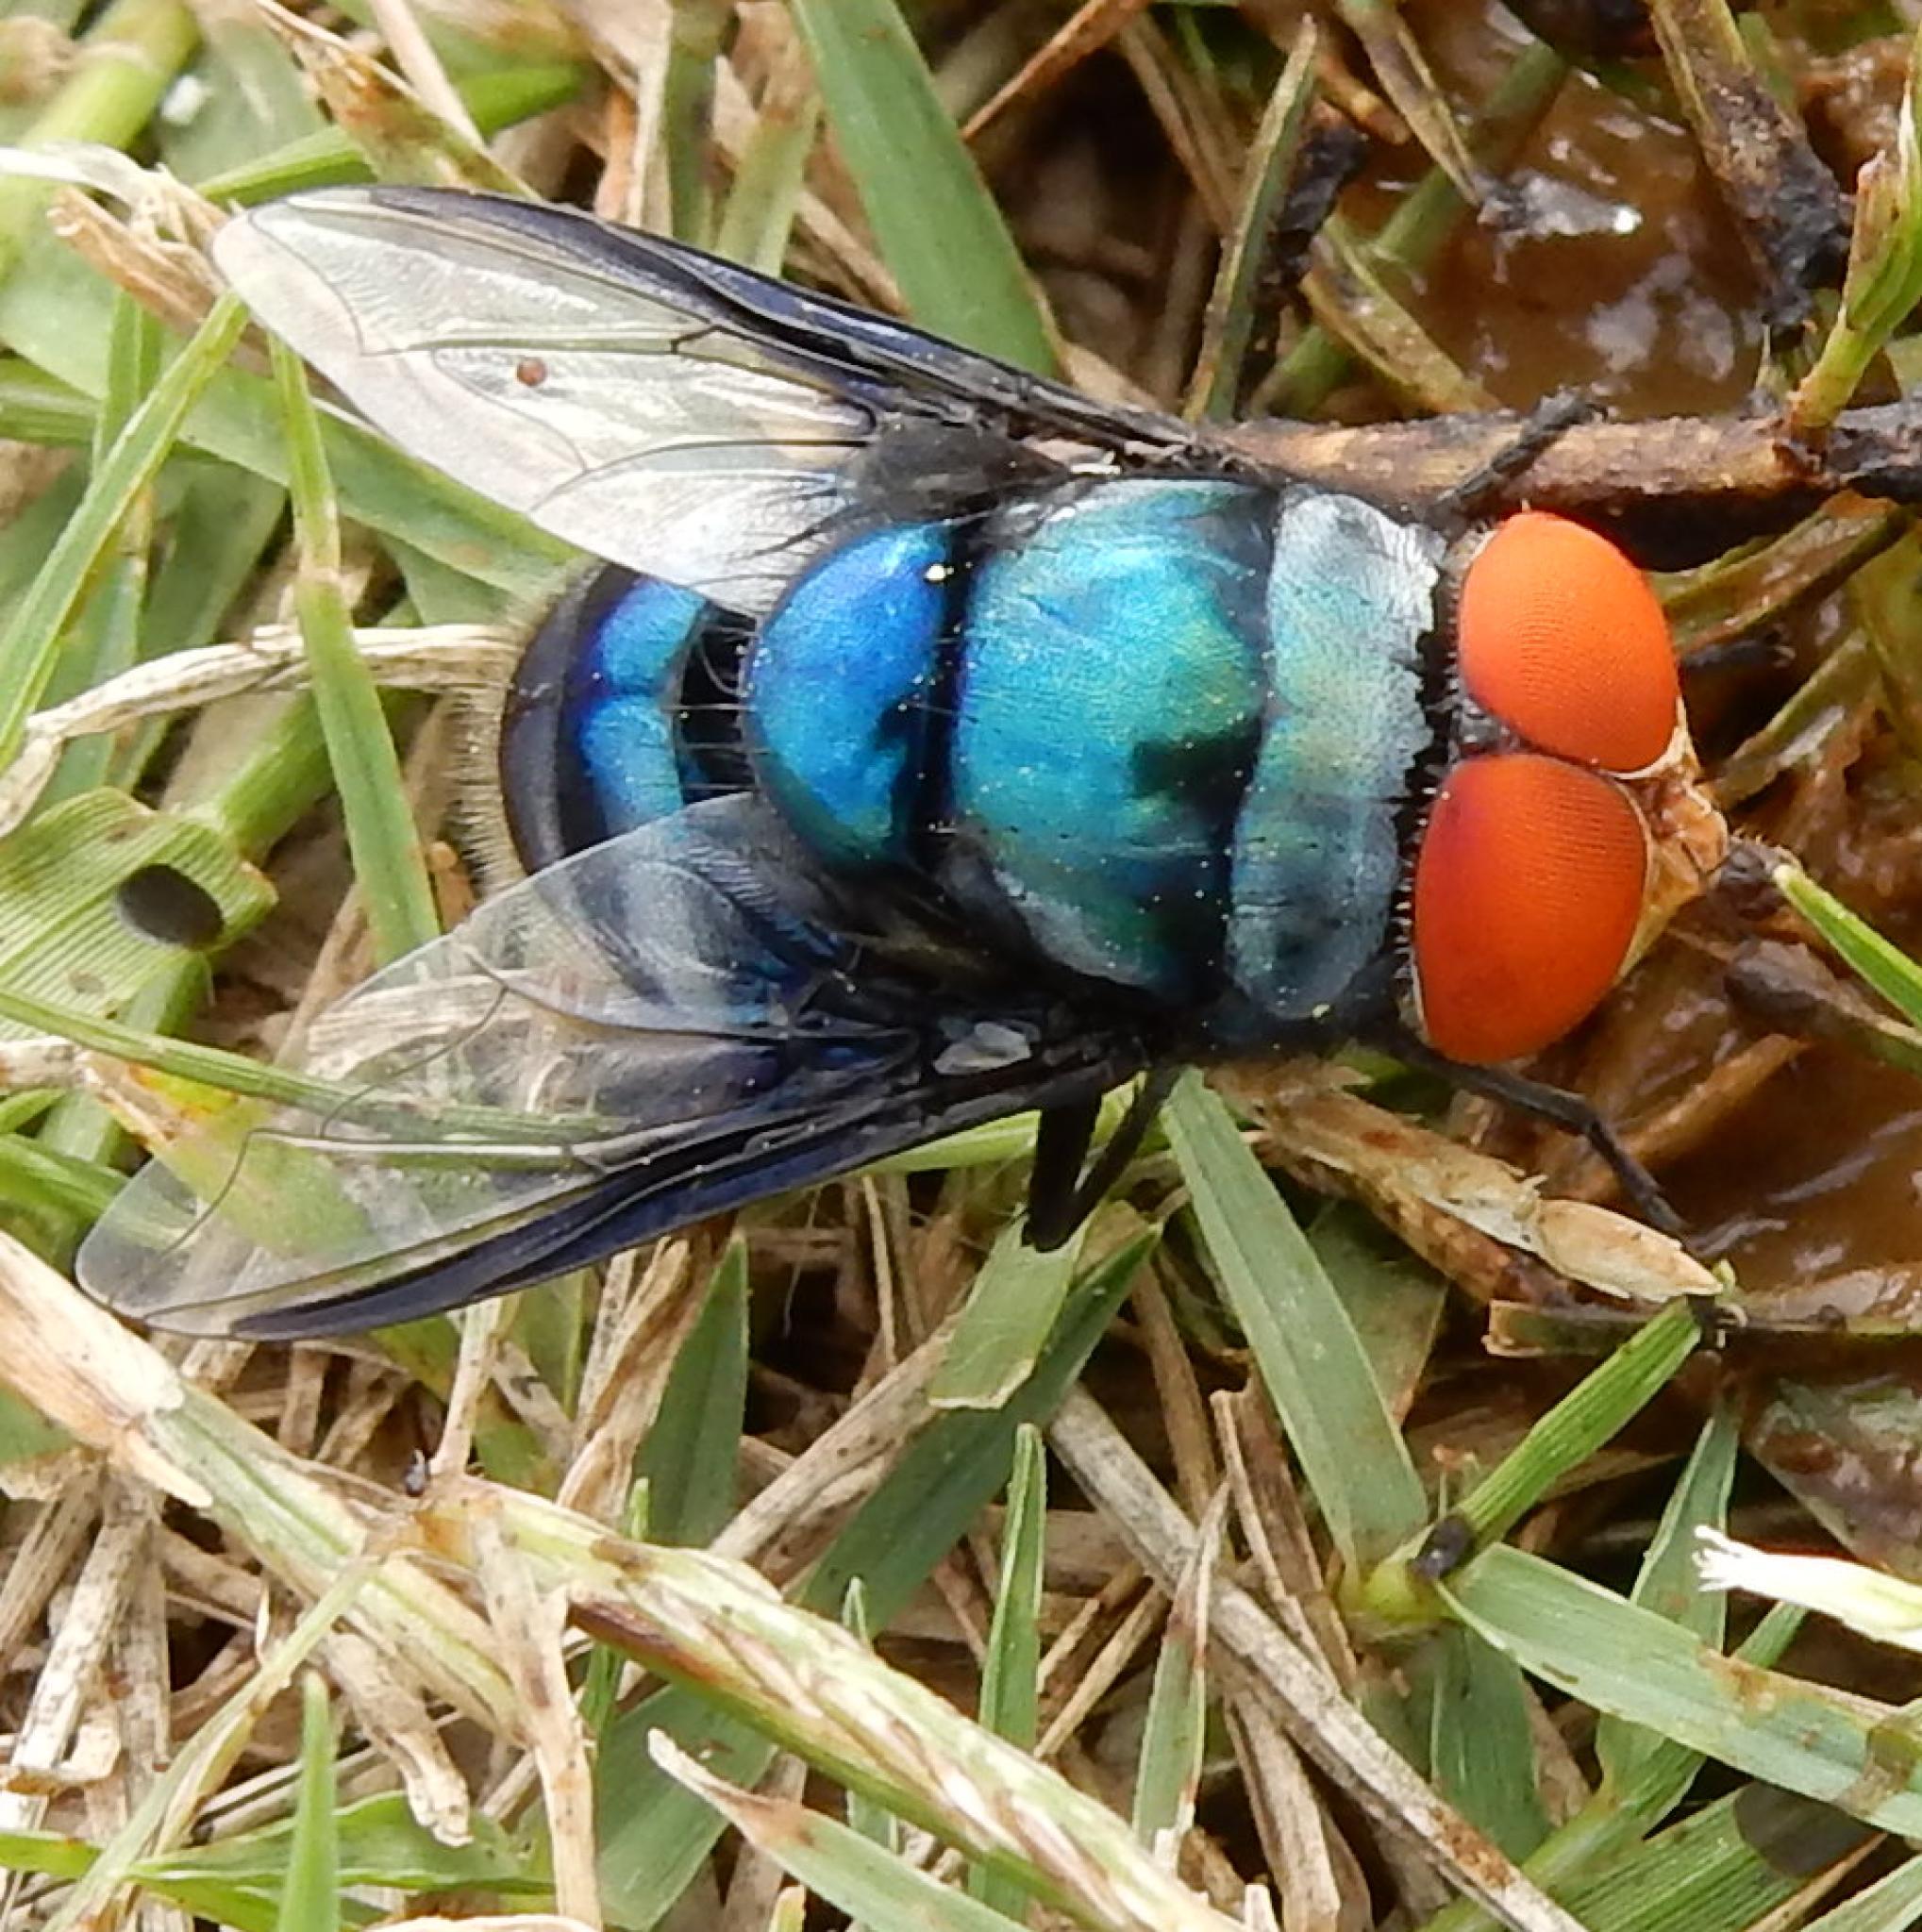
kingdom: Animalia
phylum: Arthropoda
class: Insecta
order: Diptera
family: Calliphoridae
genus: Chrysomya
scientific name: Chrysomya marginalis
